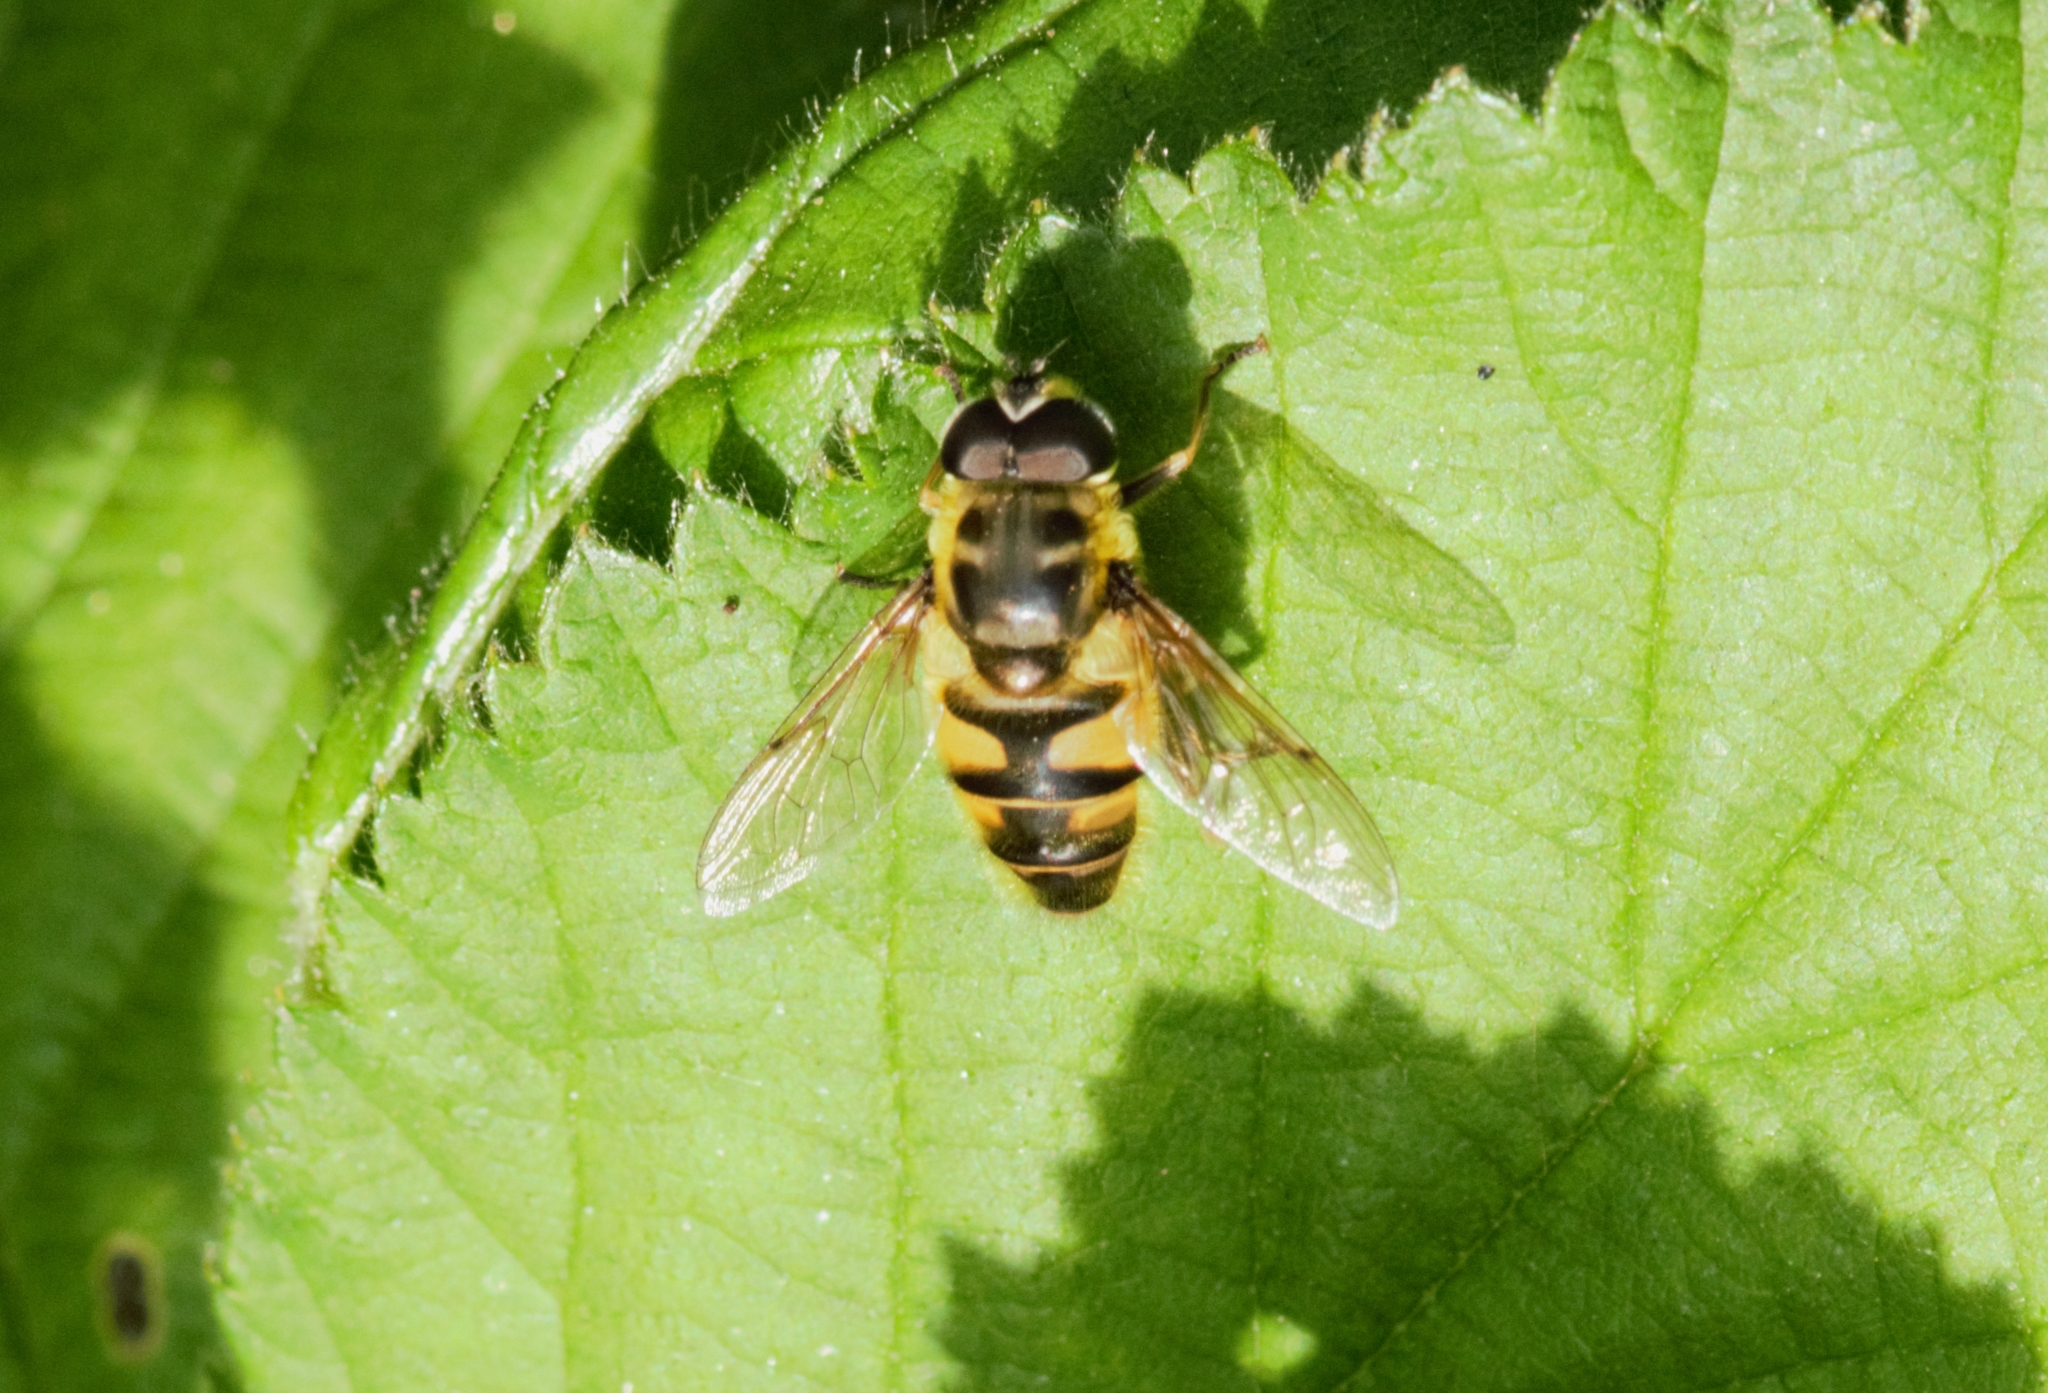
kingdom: Animalia
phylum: Arthropoda
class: Insecta
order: Diptera
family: Syrphidae
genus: Myathropa
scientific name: Myathropa florea
